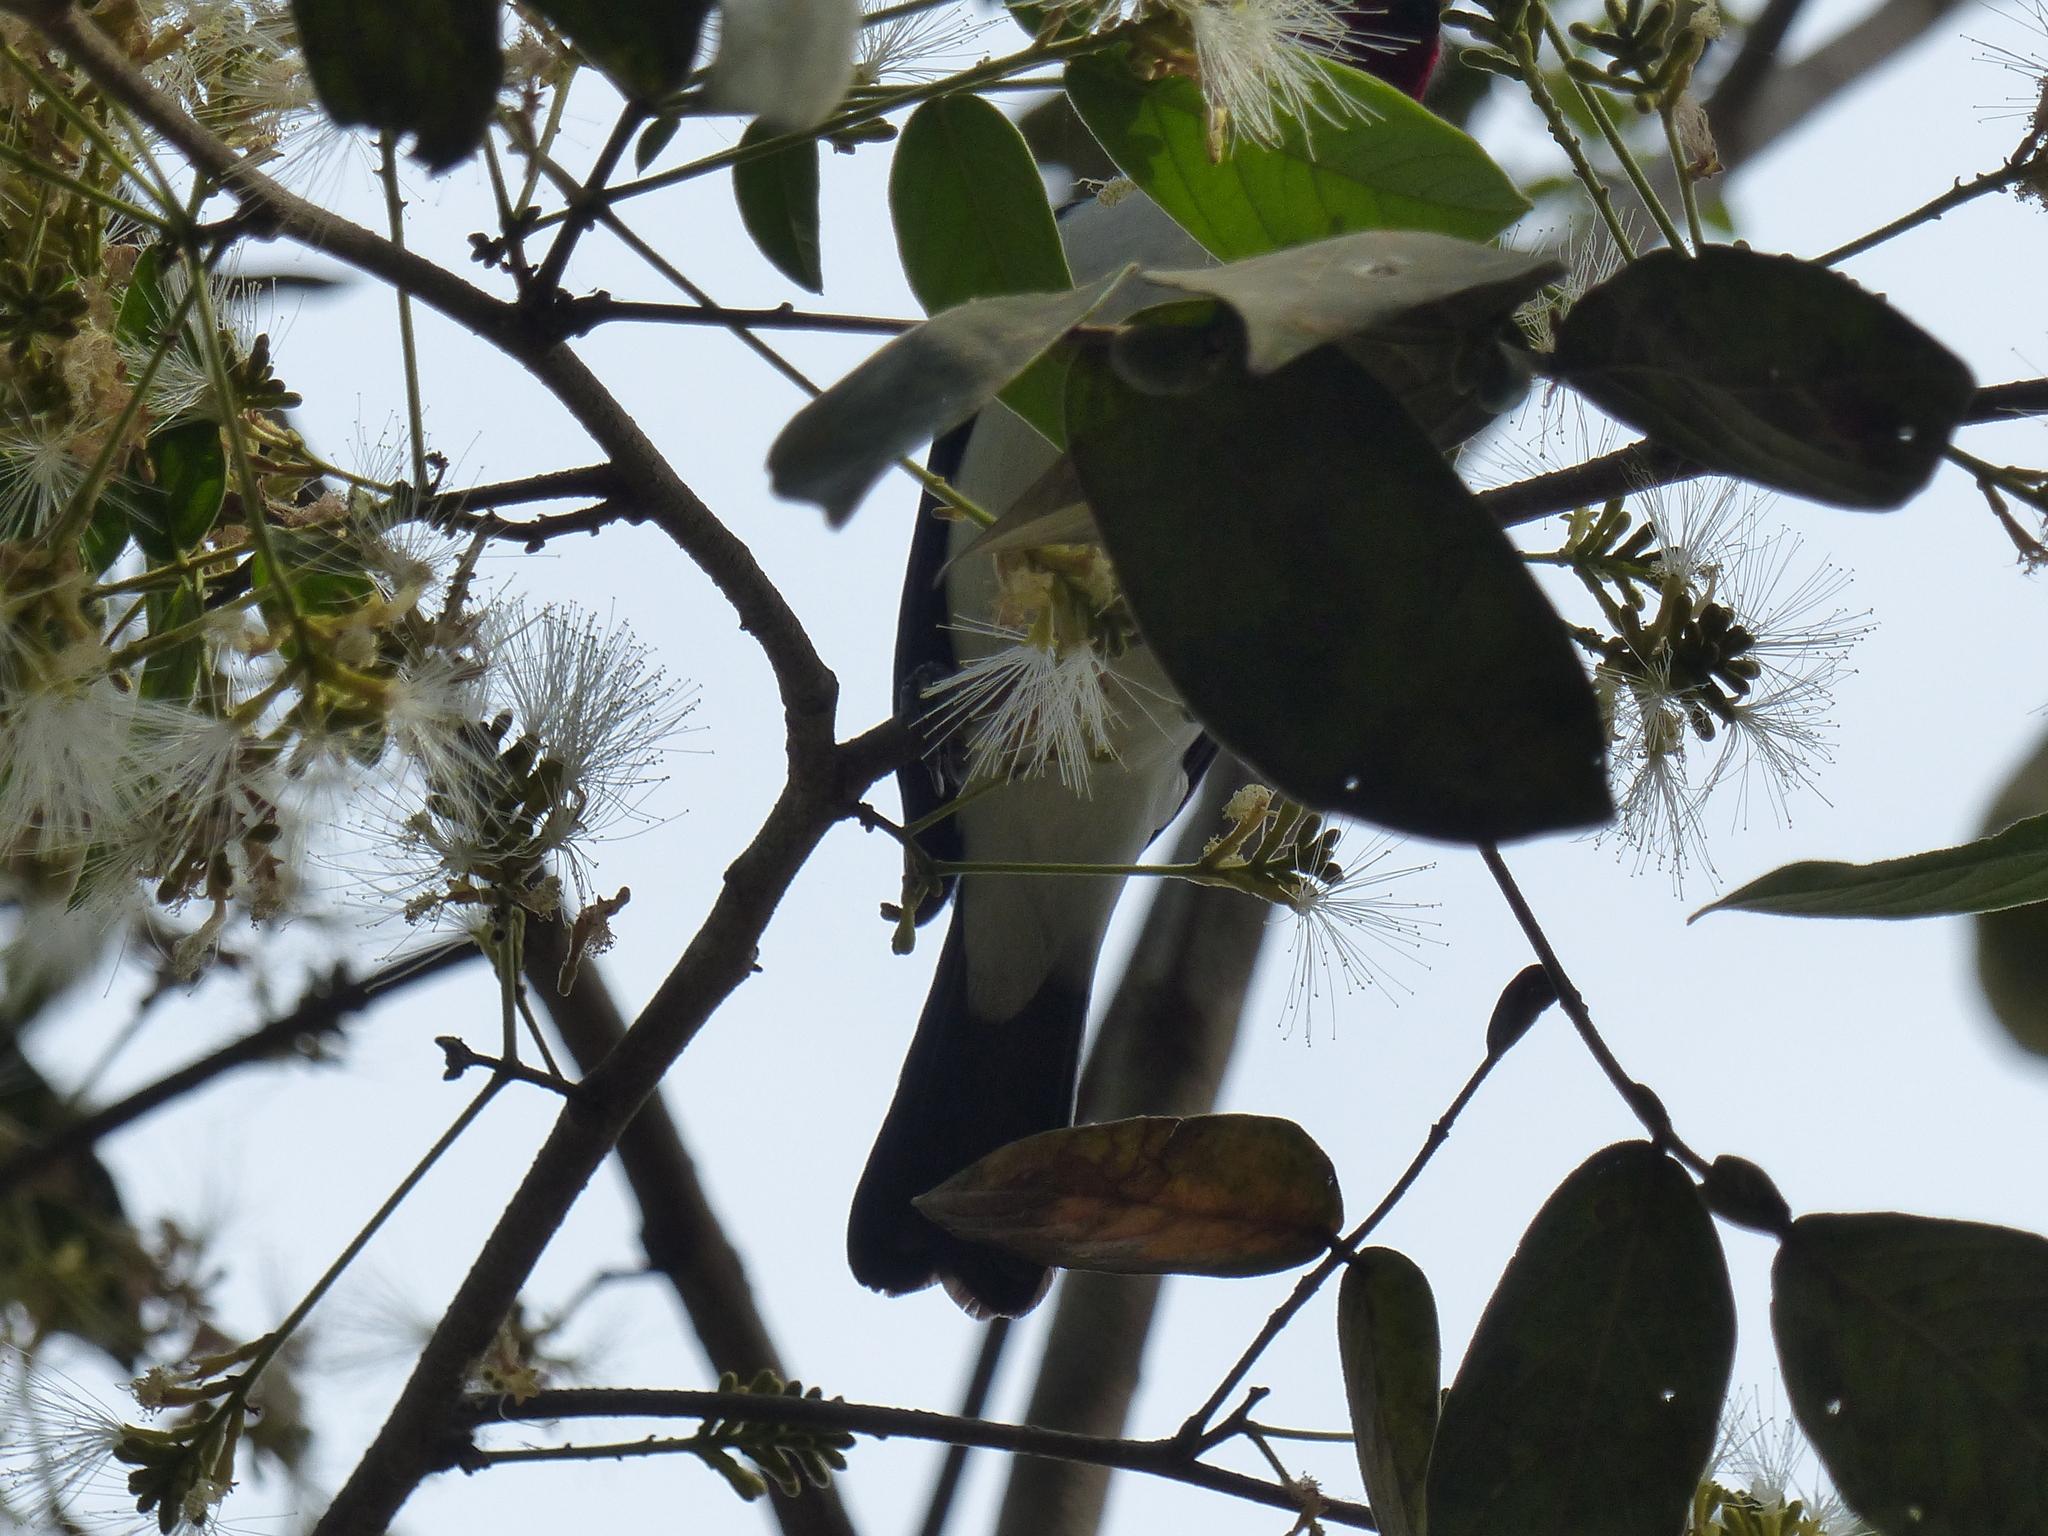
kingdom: Animalia
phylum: Chordata
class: Aves
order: Passeriformes
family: Thraupidae
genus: Paroaria
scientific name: Paroaria nigrogenis
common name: Masked cardinal
